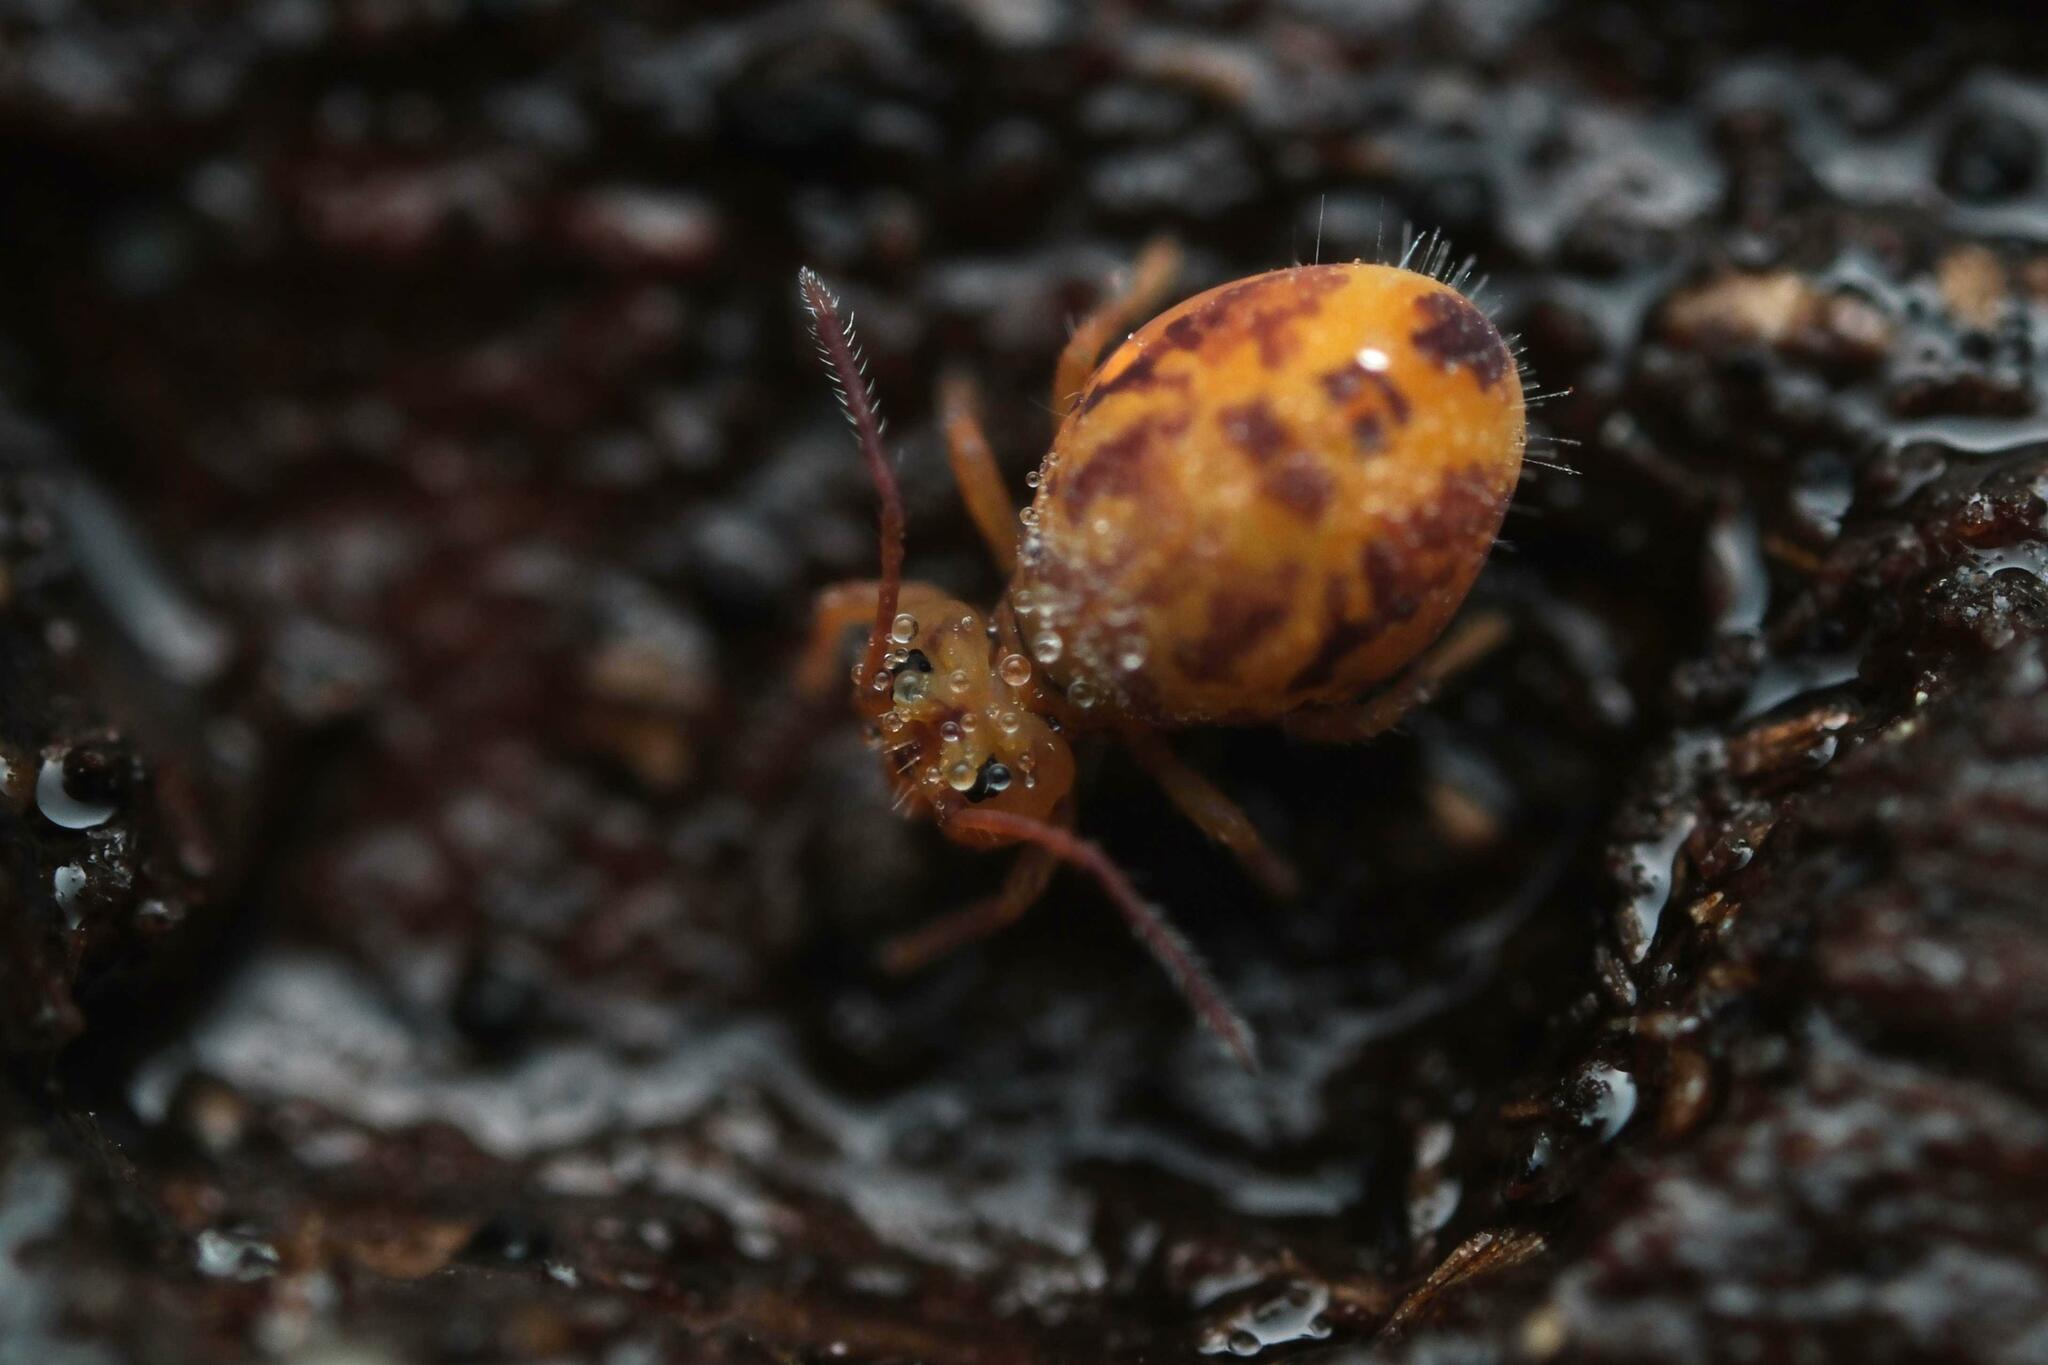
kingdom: Animalia
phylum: Arthropoda
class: Collembola
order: Symphypleona
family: Dicyrtomidae
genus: Dicyrtomina
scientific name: Dicyrtomina ornata
